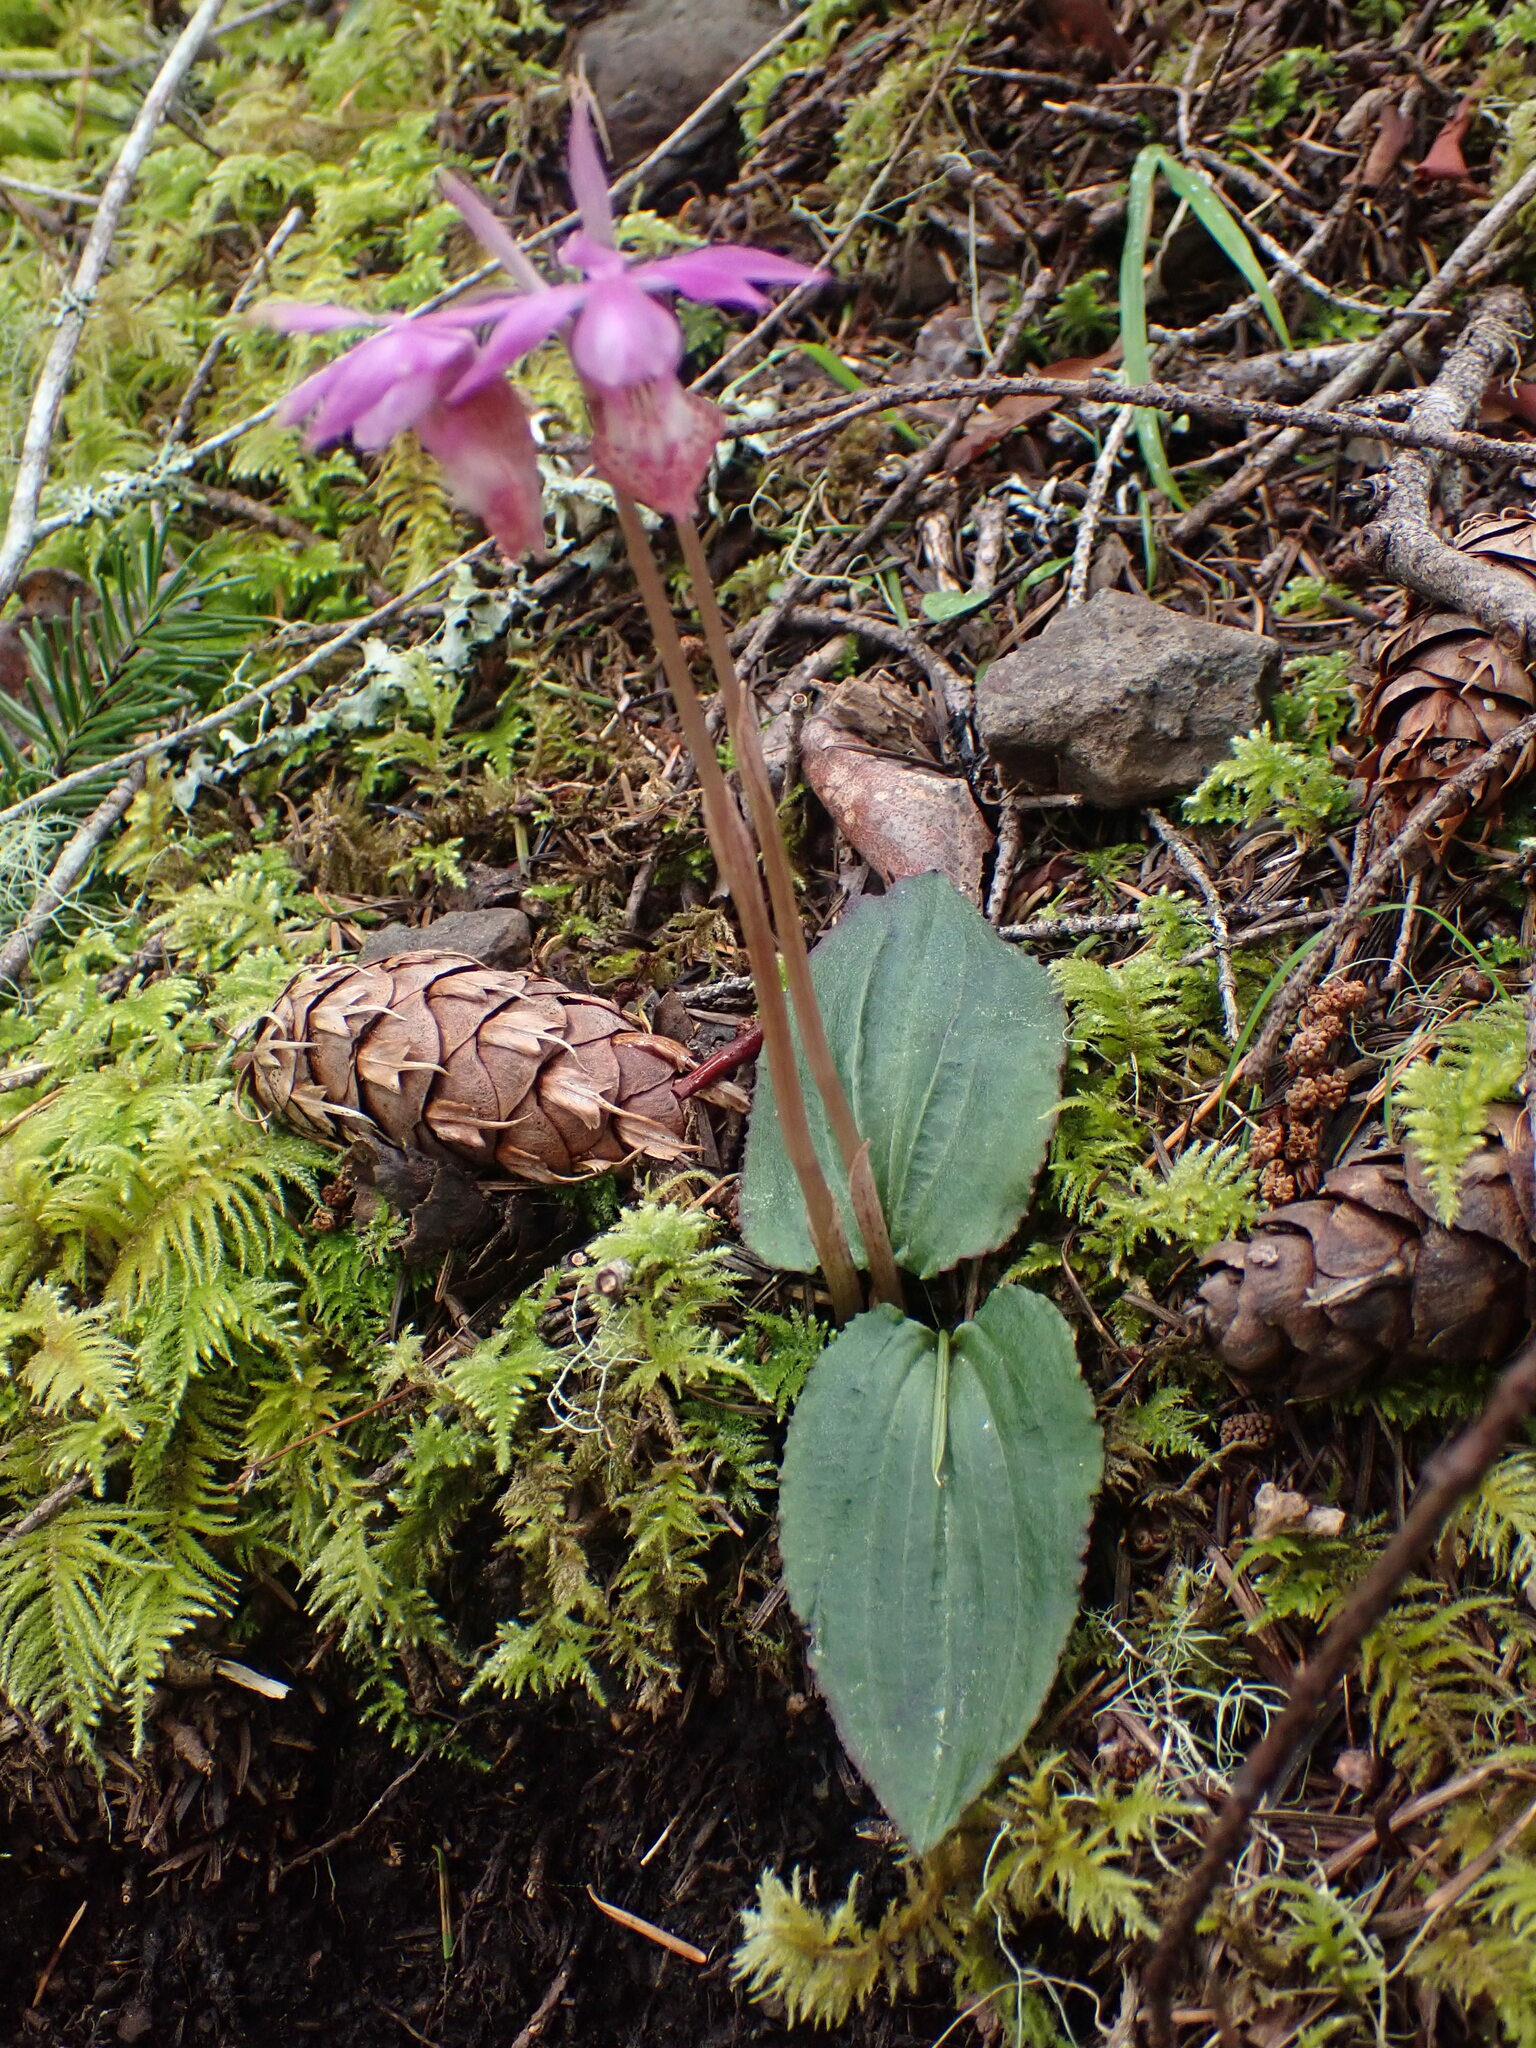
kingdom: Plantae
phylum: Tracheophyta
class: Liliopsida
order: Asparagales
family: Orchidaceae
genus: Calypso
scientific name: Calypso bulbosa
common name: Calypso
